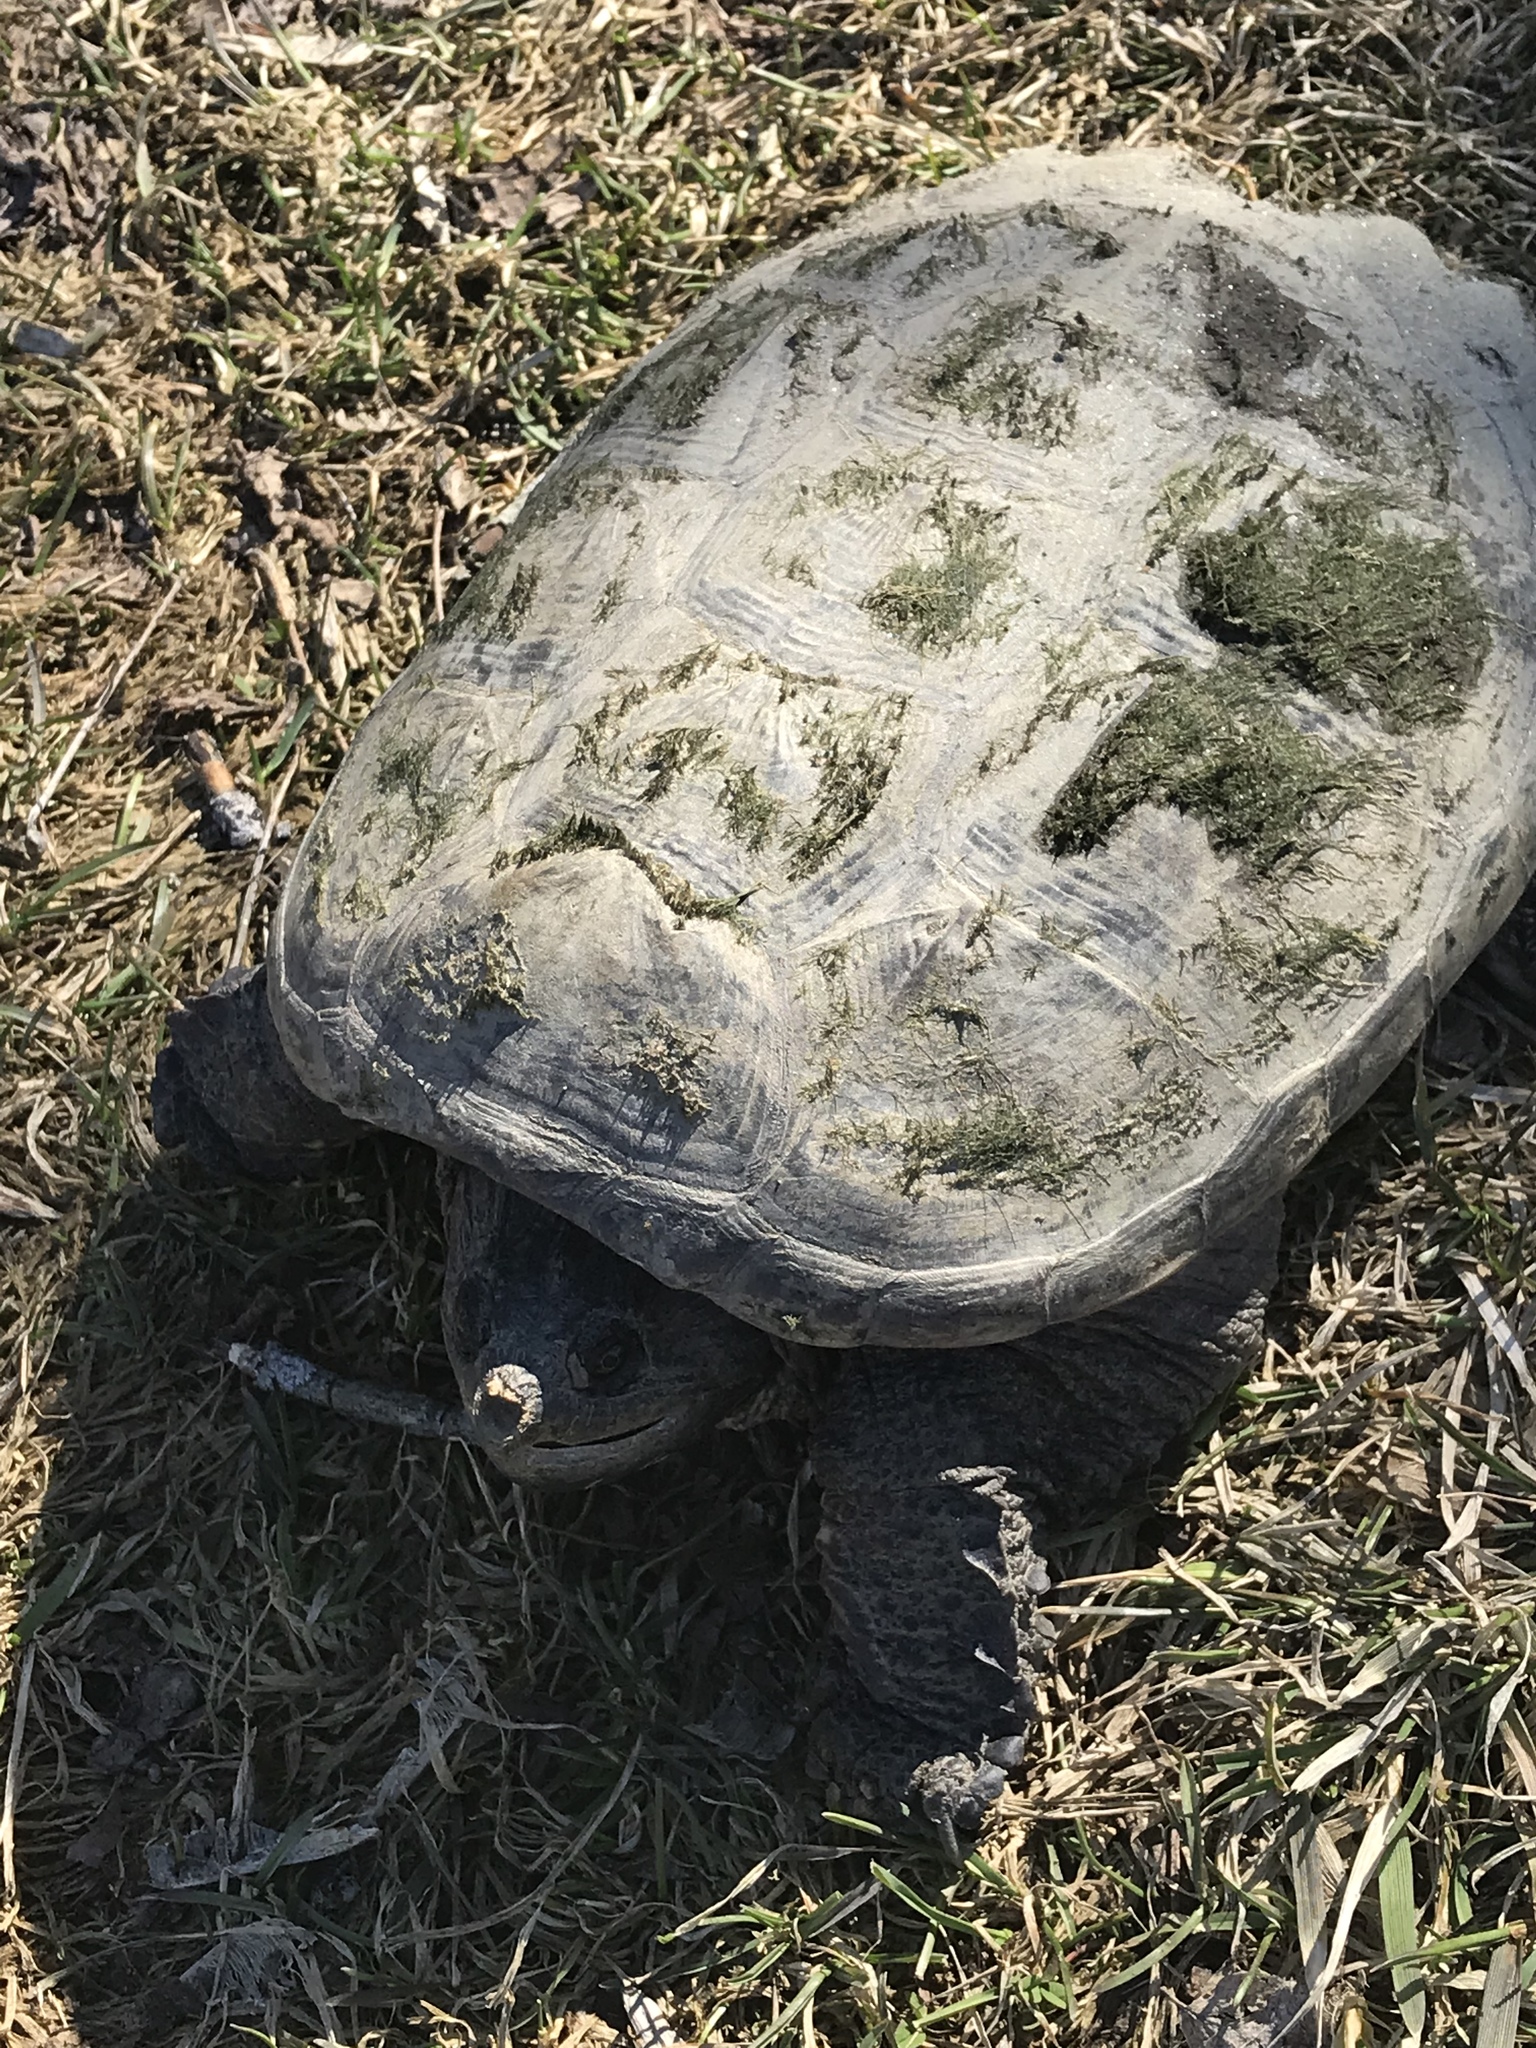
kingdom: Animalia
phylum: Chordata
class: Testudines
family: Chelydridae
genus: Chelydra
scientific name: Chelydra serpentina
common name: Common snapping turtle
